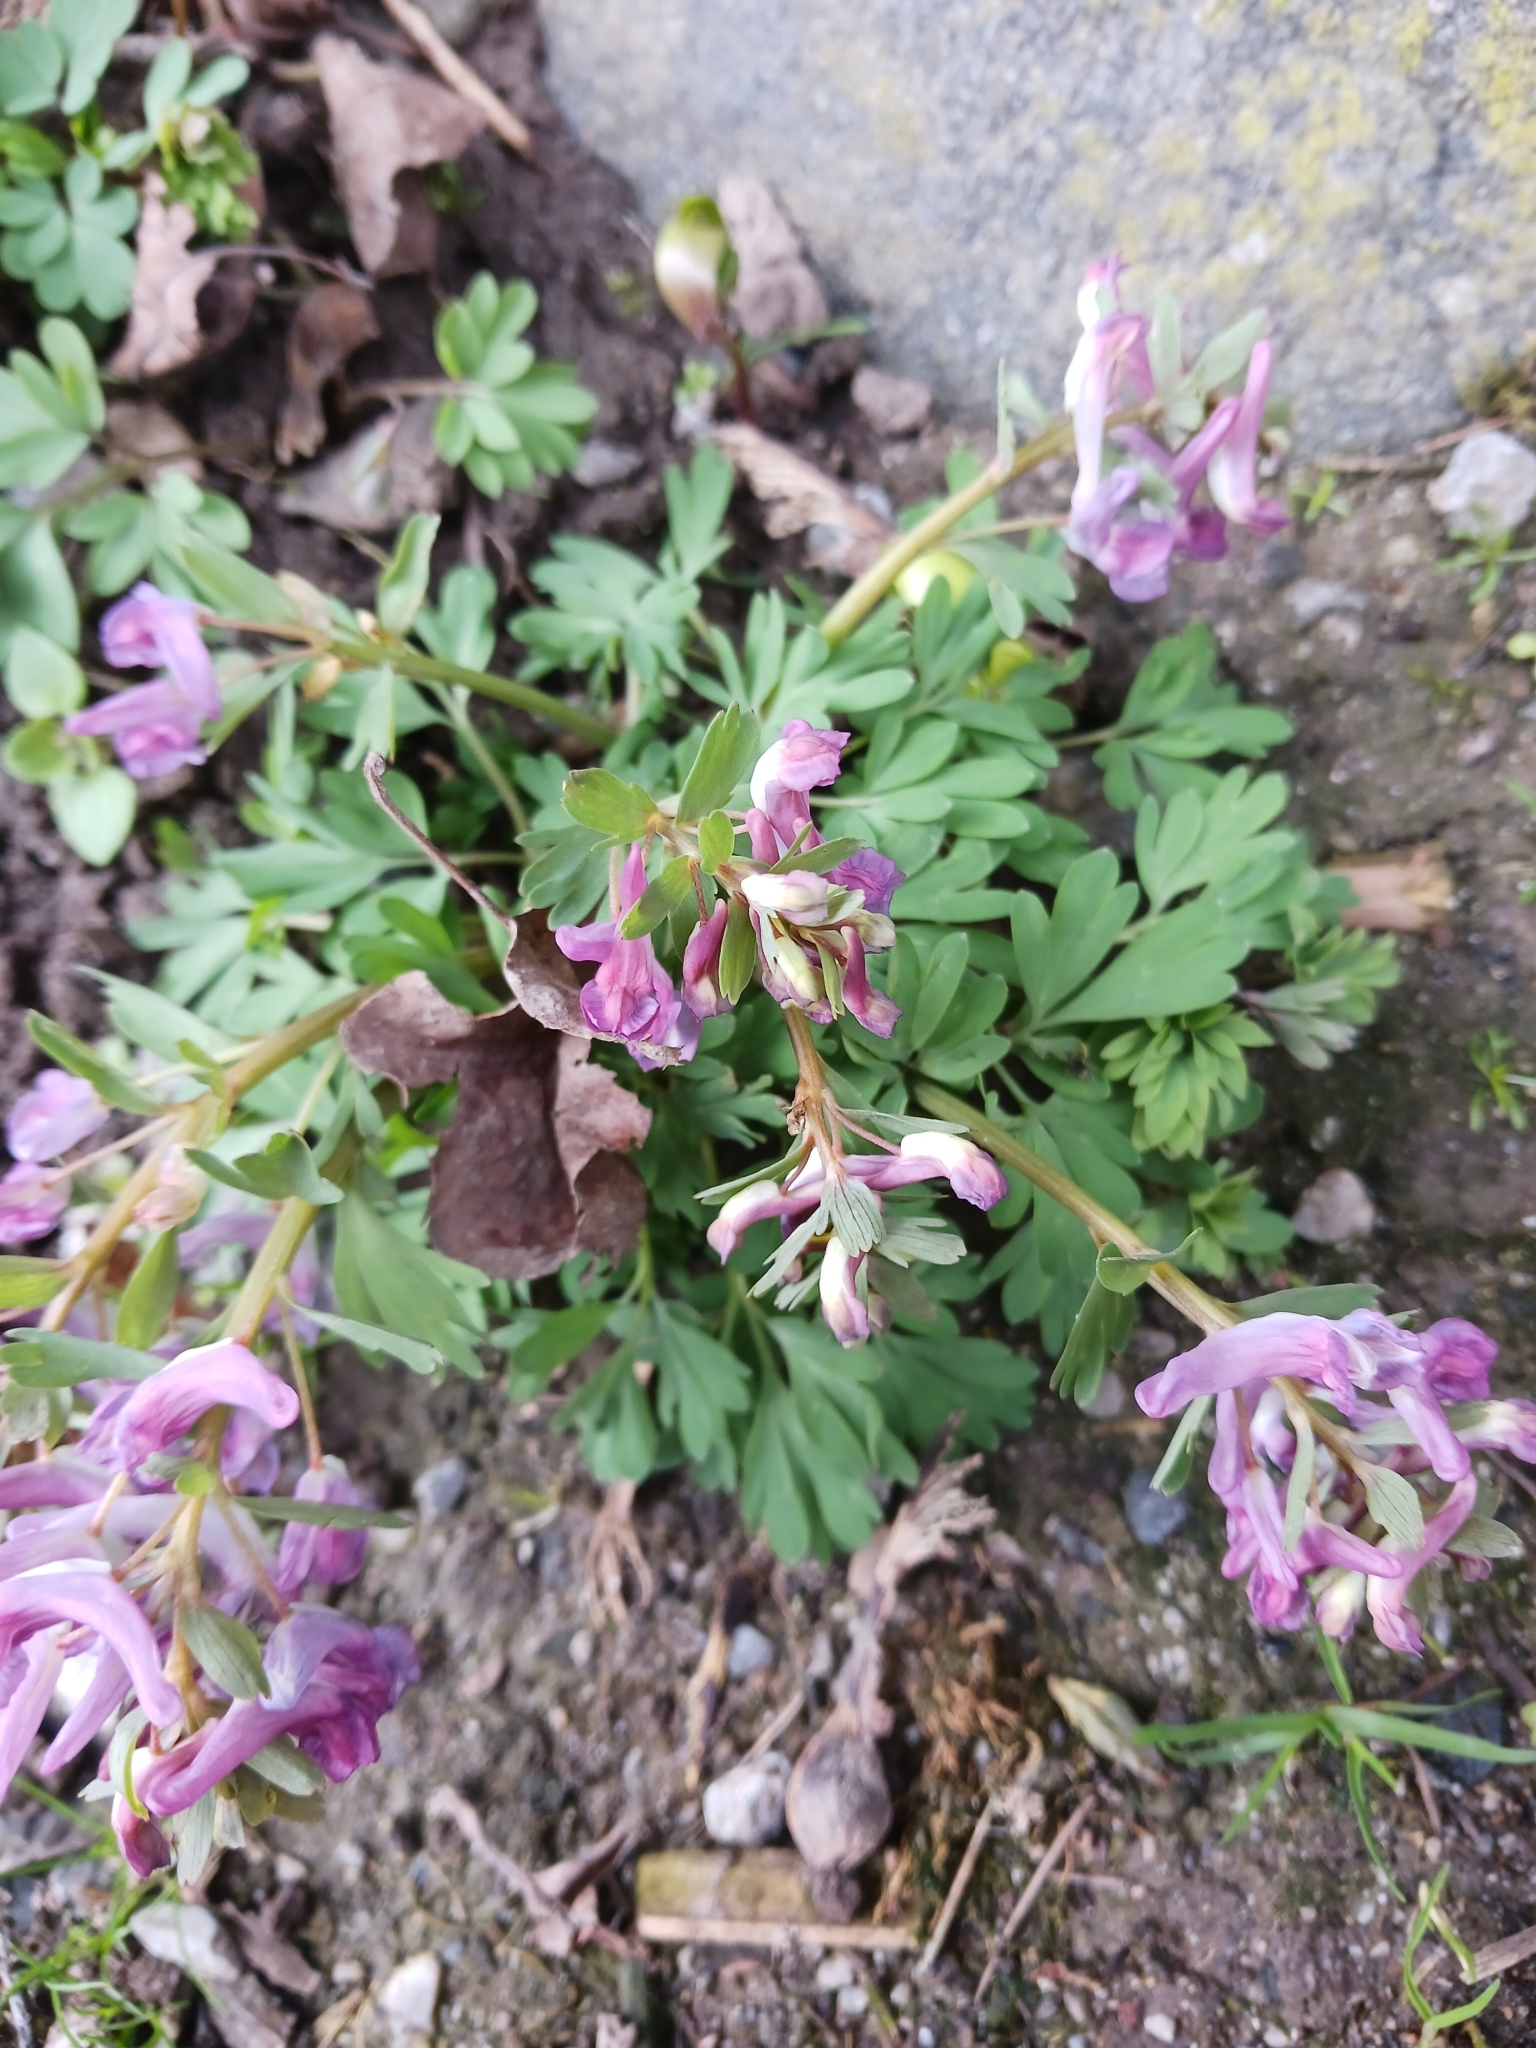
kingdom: Plantae
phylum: Tracheophyta
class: Magnoliopsida
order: Ranunculales
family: Papaveraceae
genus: Corydalis
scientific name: Corydalis solida
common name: Bird-in-a-bush
